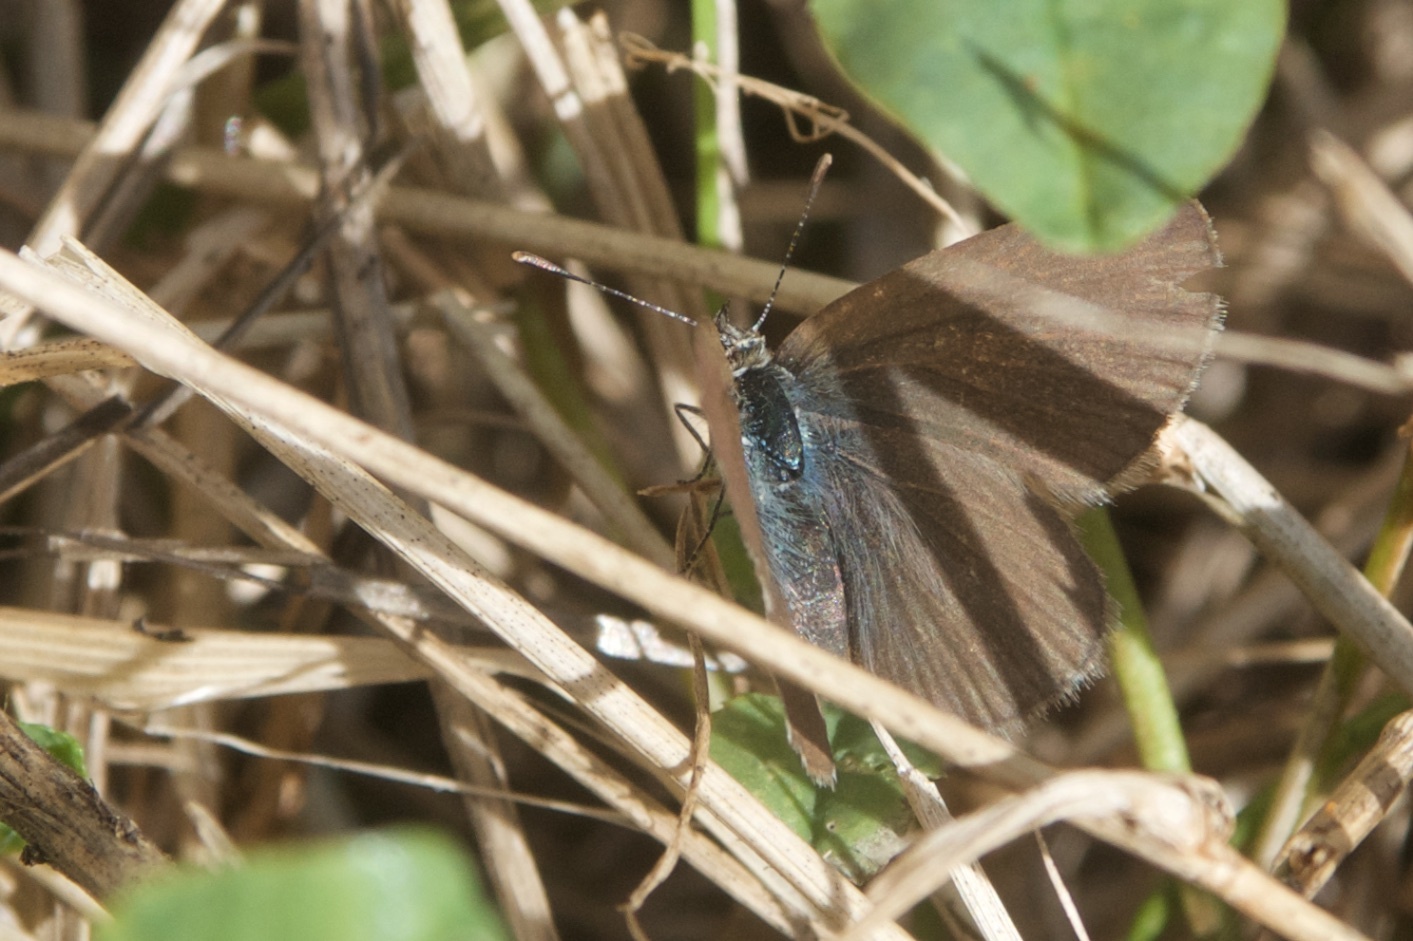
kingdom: Animalia
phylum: Arthropoda
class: Insecta
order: Lepidoptera
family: Lycaenidae
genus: Zizina
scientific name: Zizina labradus
